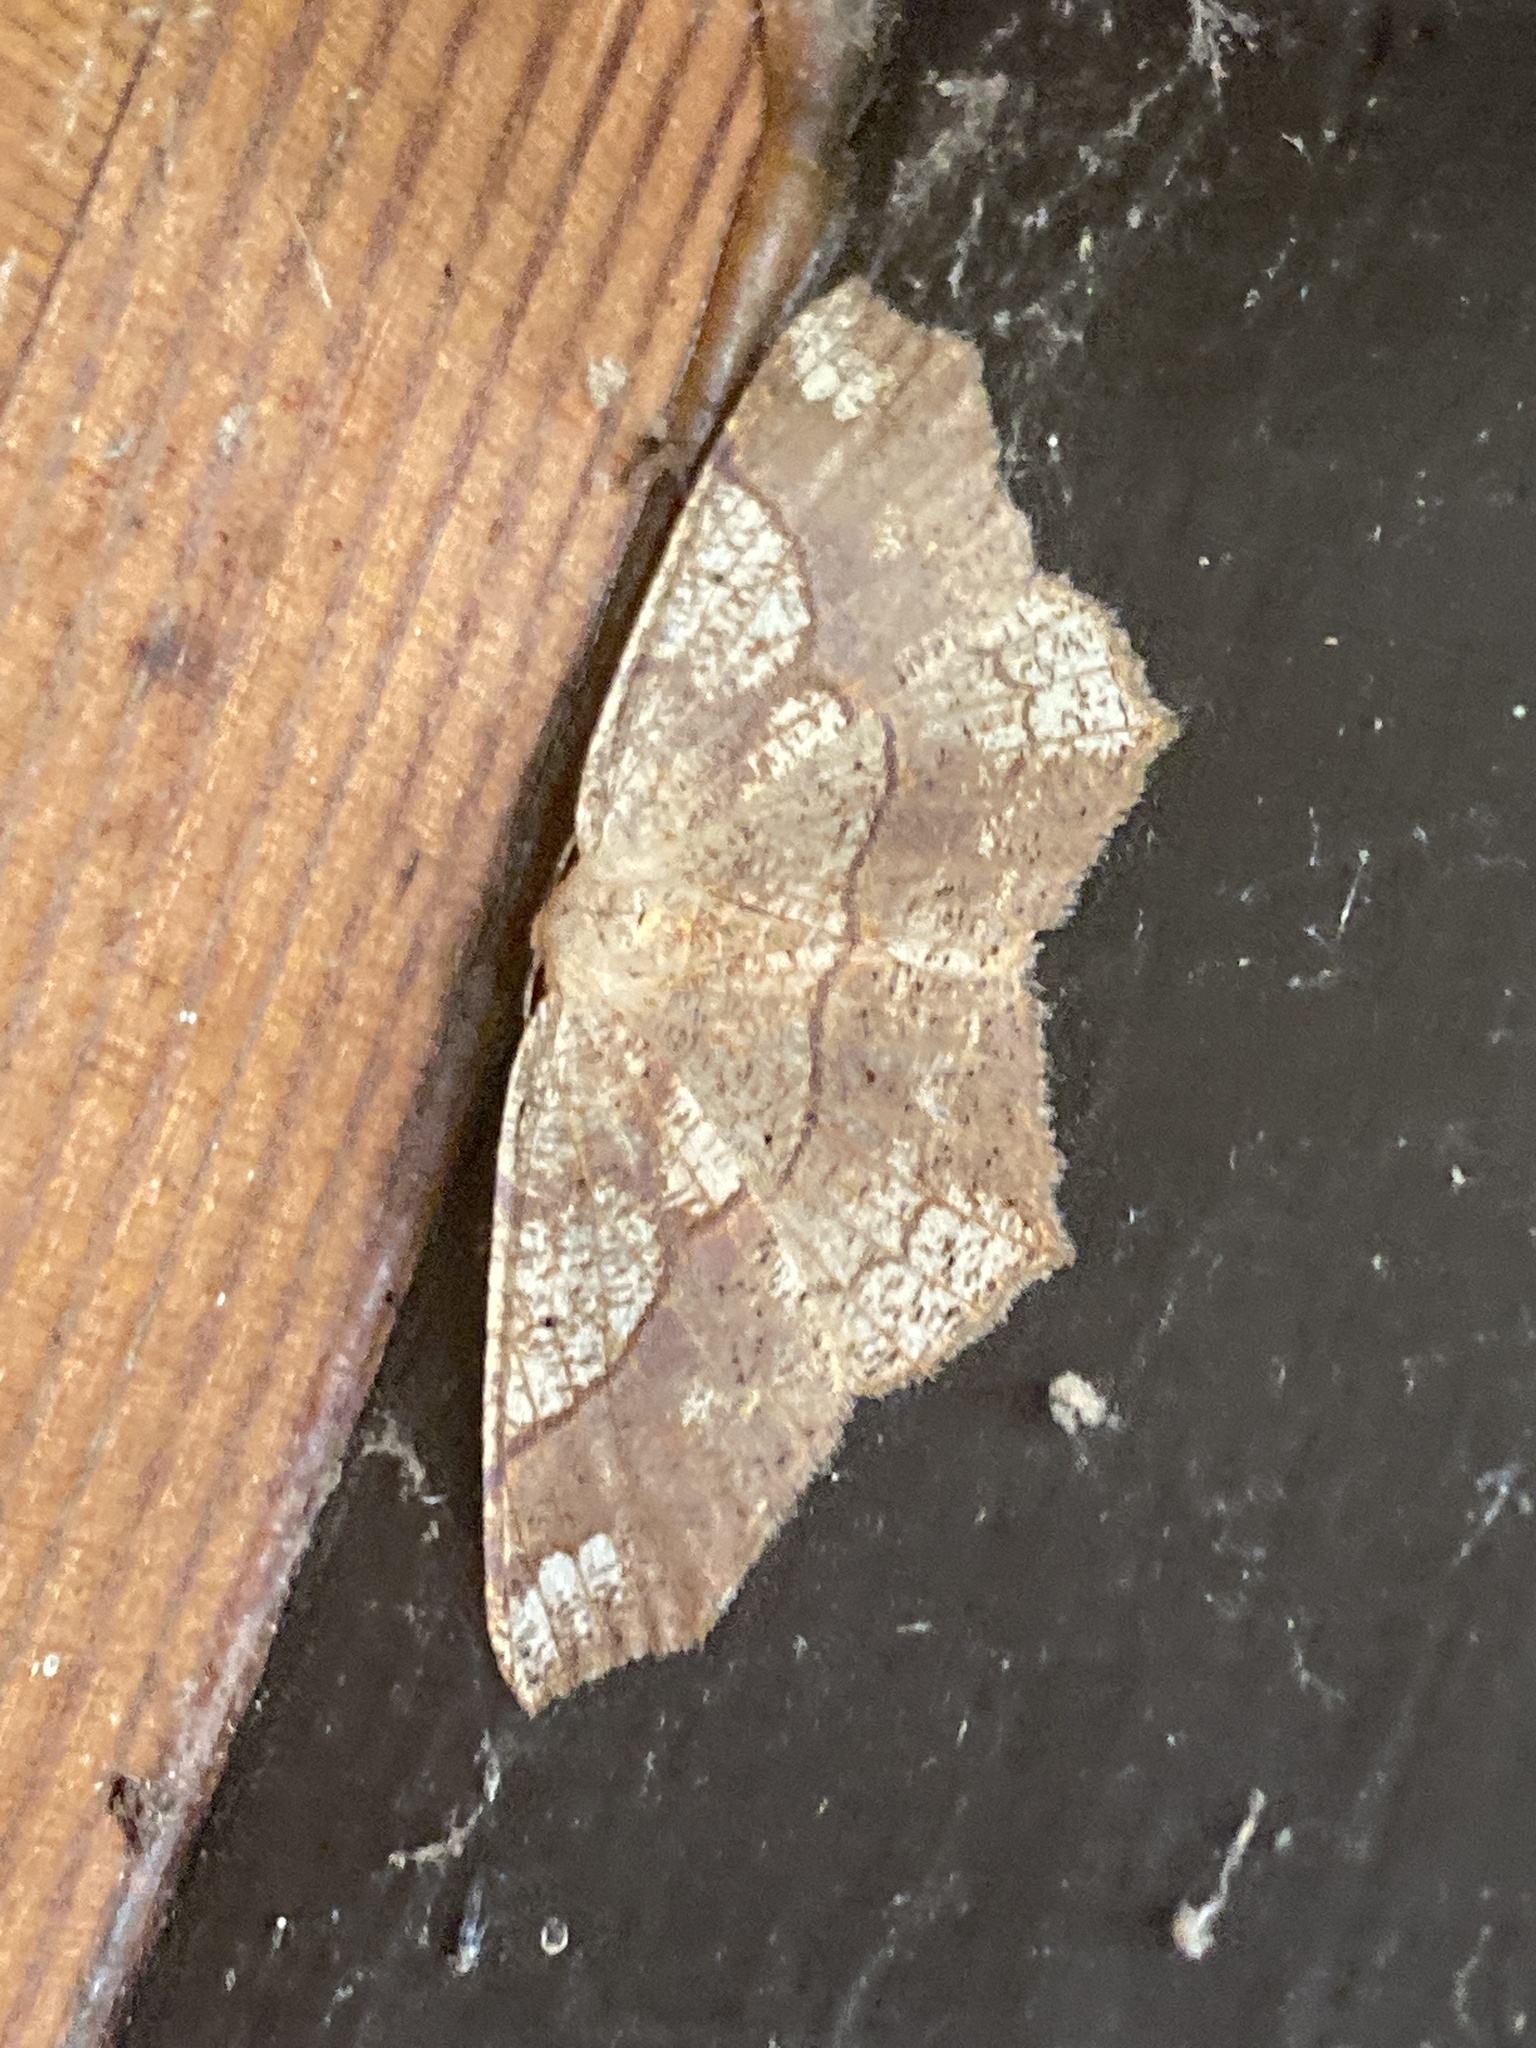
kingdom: Animalia
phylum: Arthropoda
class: Insecta
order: Lepidoptera
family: Geometridae
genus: Besma
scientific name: Besma quercivoraria
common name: Oak besma
